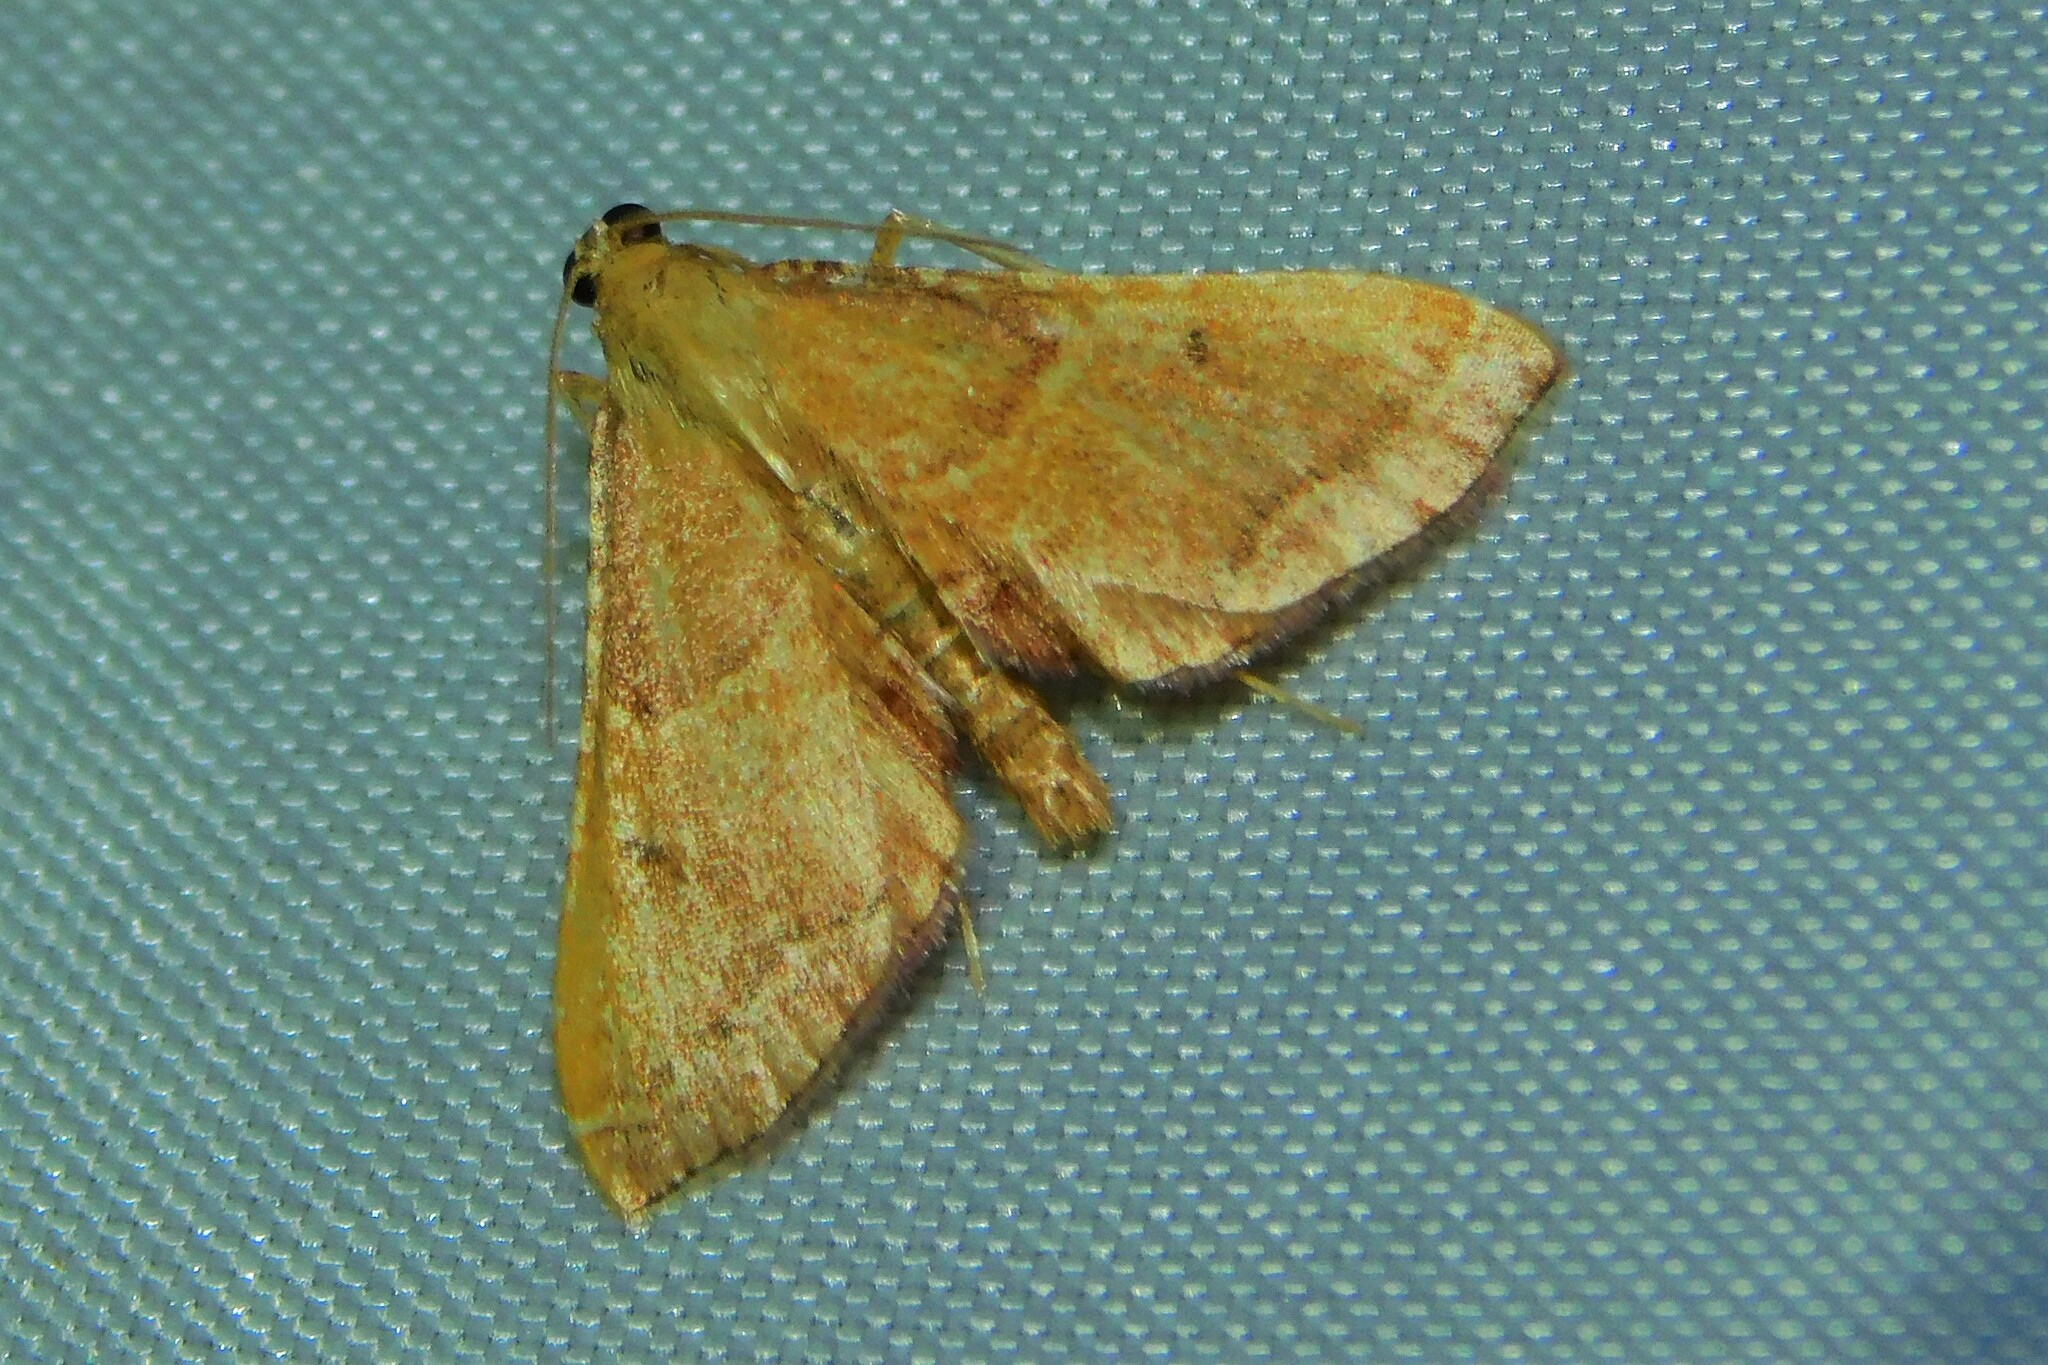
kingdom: Animalia
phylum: Arthropoda
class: Insecta
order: Lepidoptera
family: Pyralidae
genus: Endotricha
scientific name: Endotricha flammealis
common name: Rosy tabby
